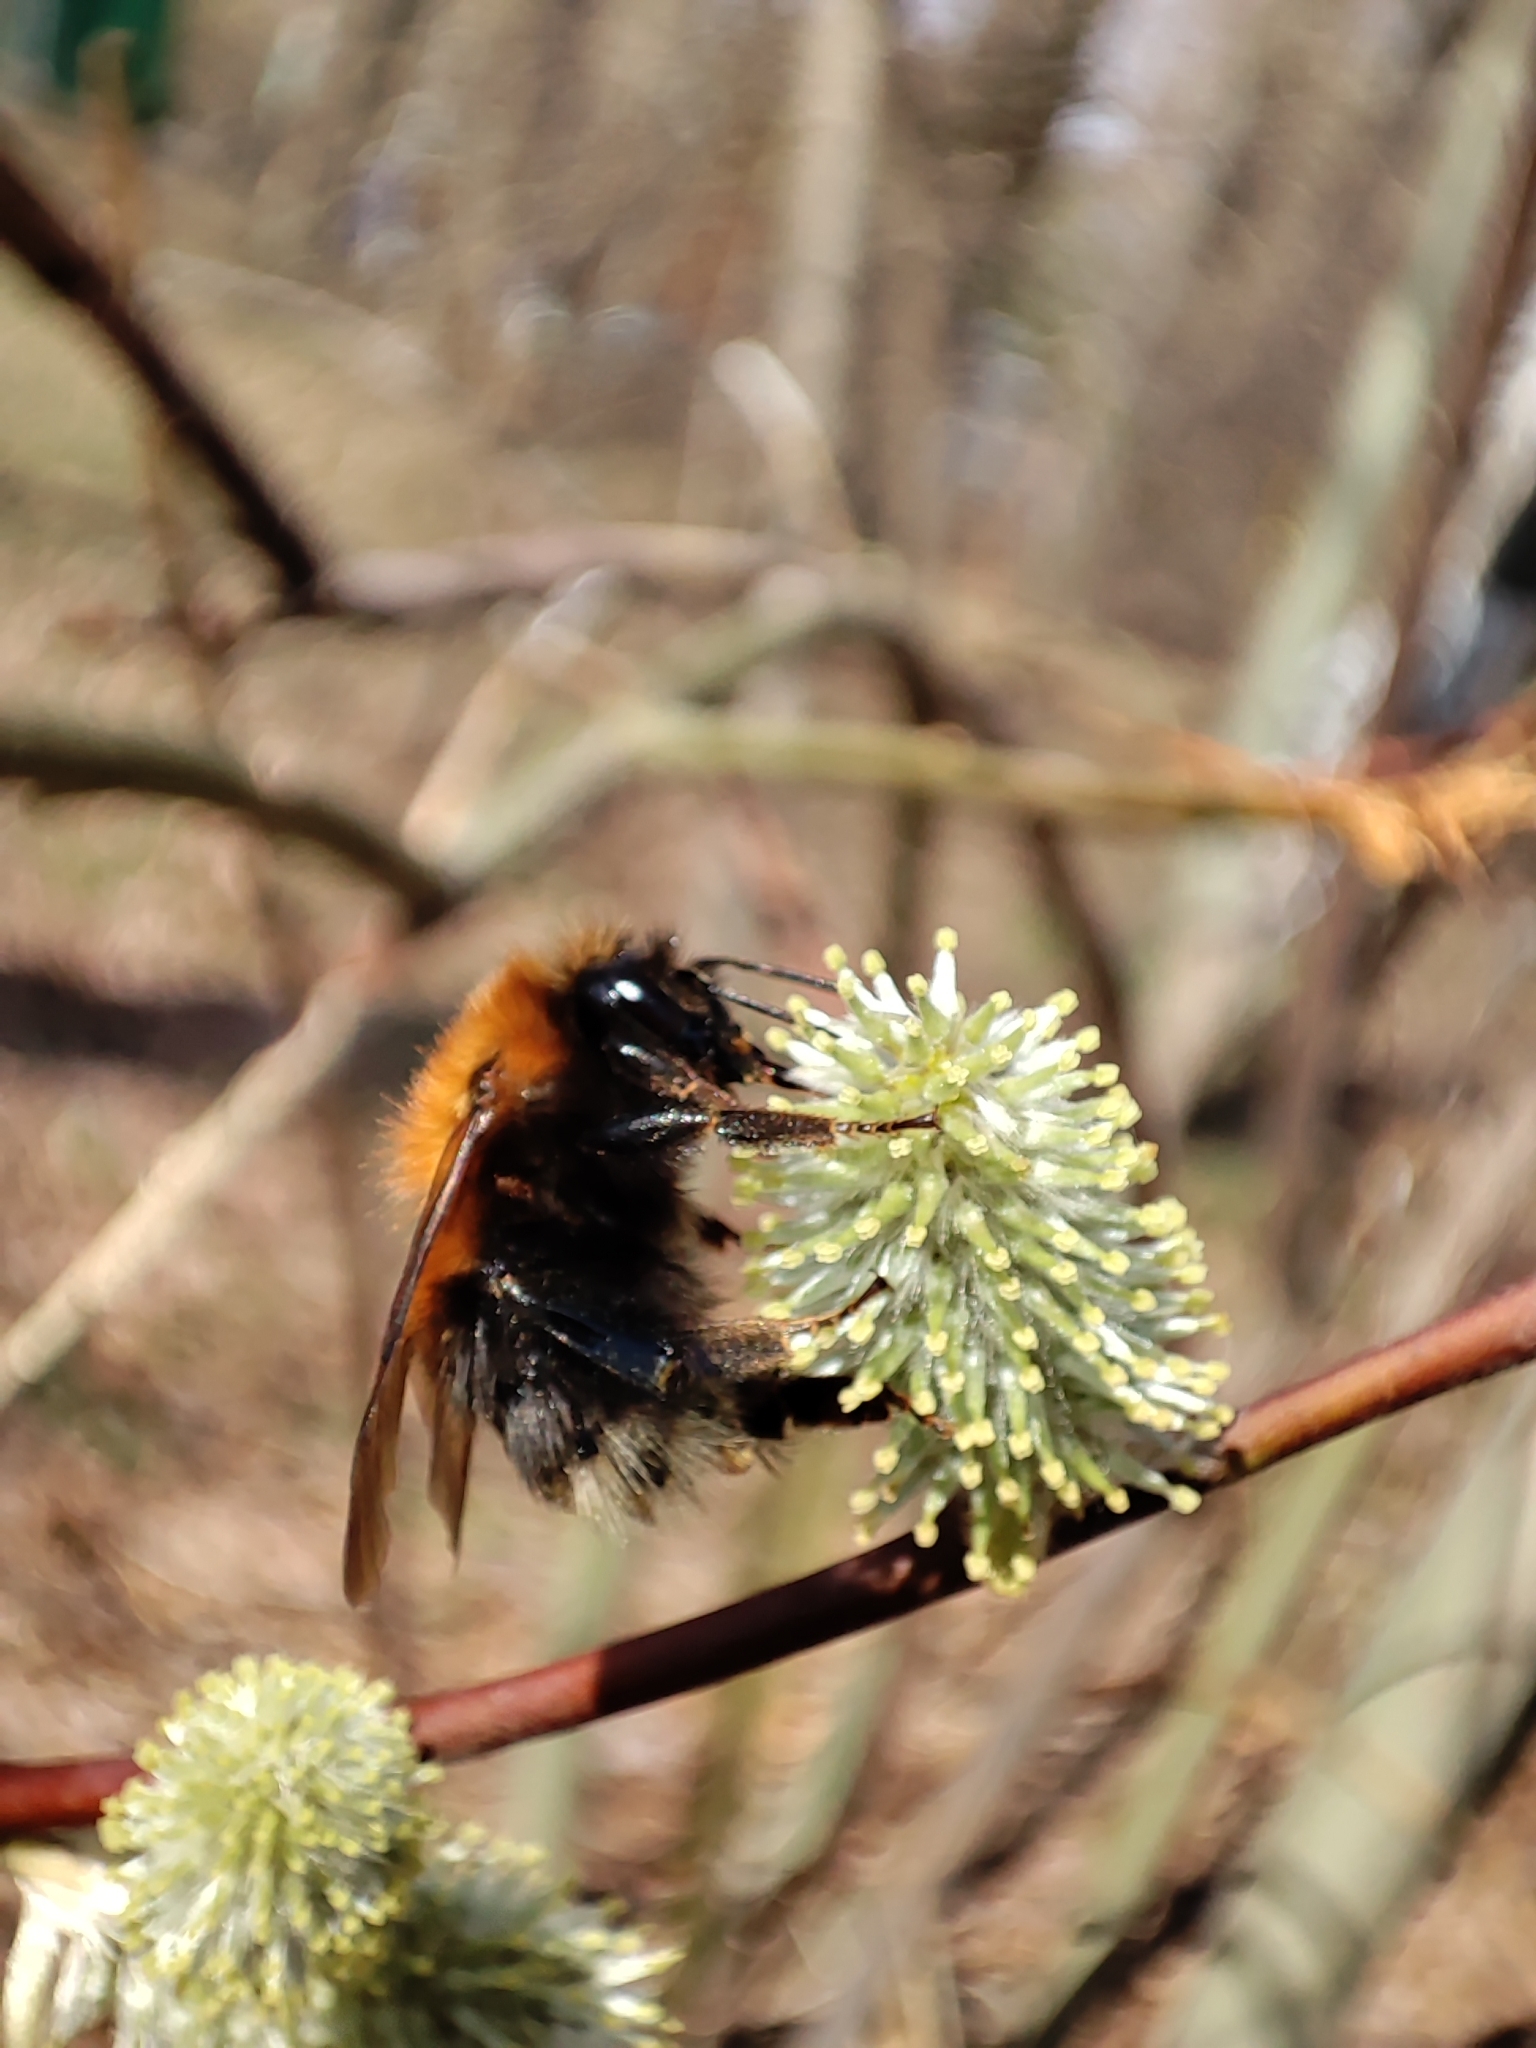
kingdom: Animalia
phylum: Arthropoda
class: Insecta
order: Hymenoptera
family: Apidae
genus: Bombus
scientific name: Bombus hypnorum
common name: New garden bumblebee
